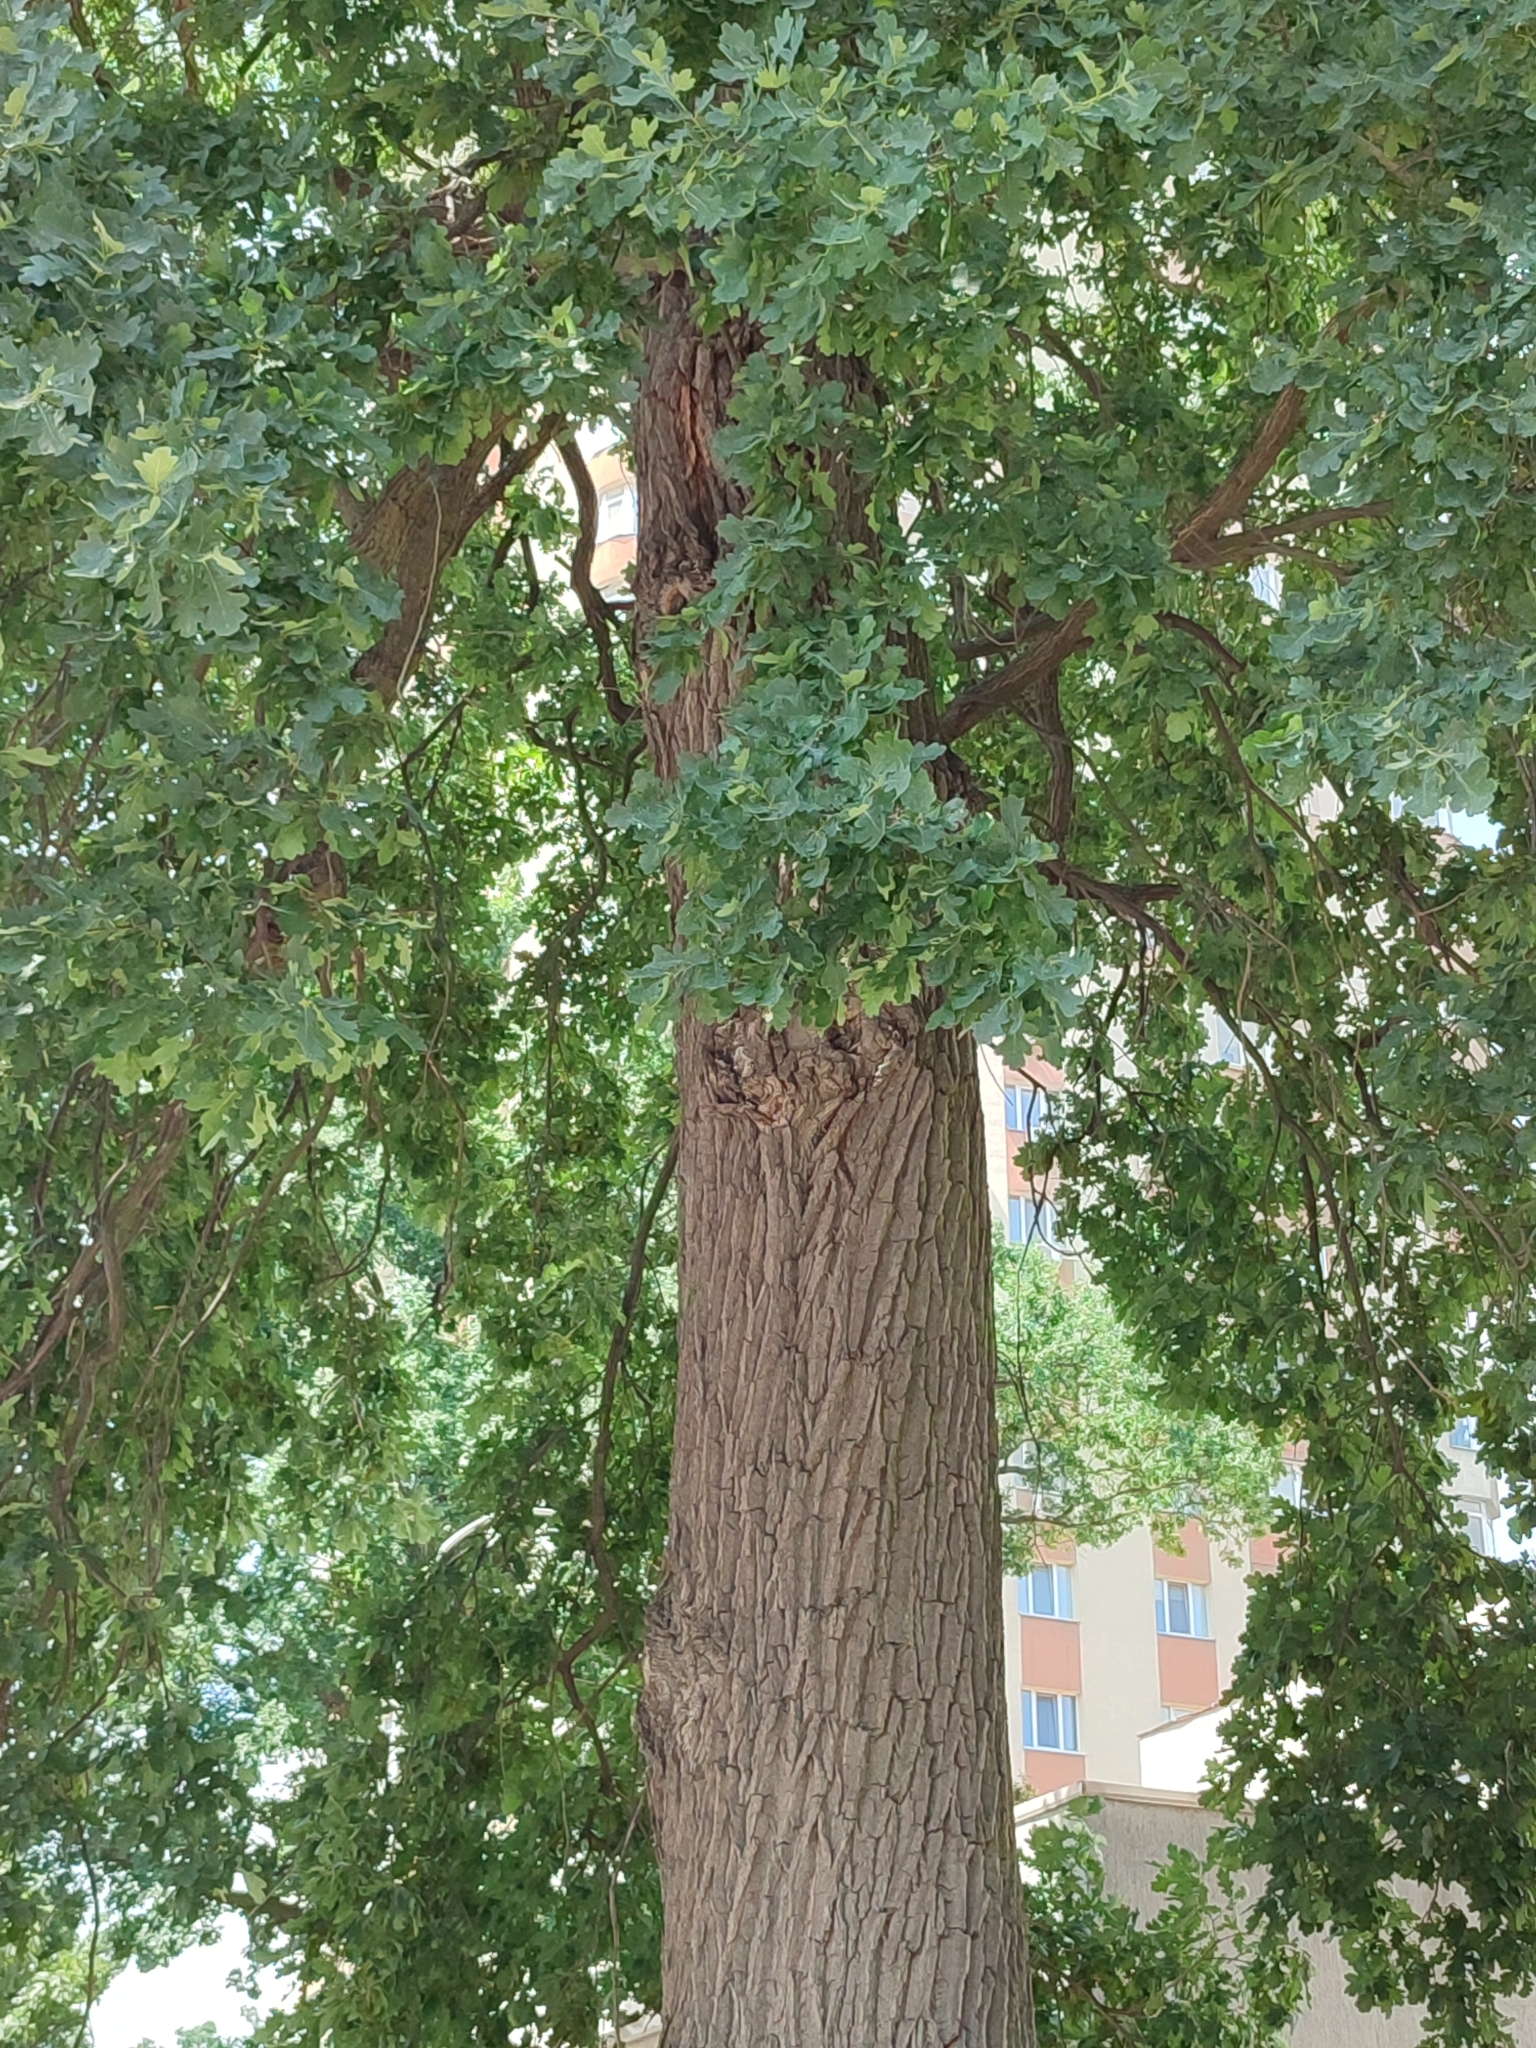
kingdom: Plantae
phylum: Tracheophyta
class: Magnoliopsida
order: Fagales
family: Fagaceae
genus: Quercus
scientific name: Quercus robur
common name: Pedunculate oak
